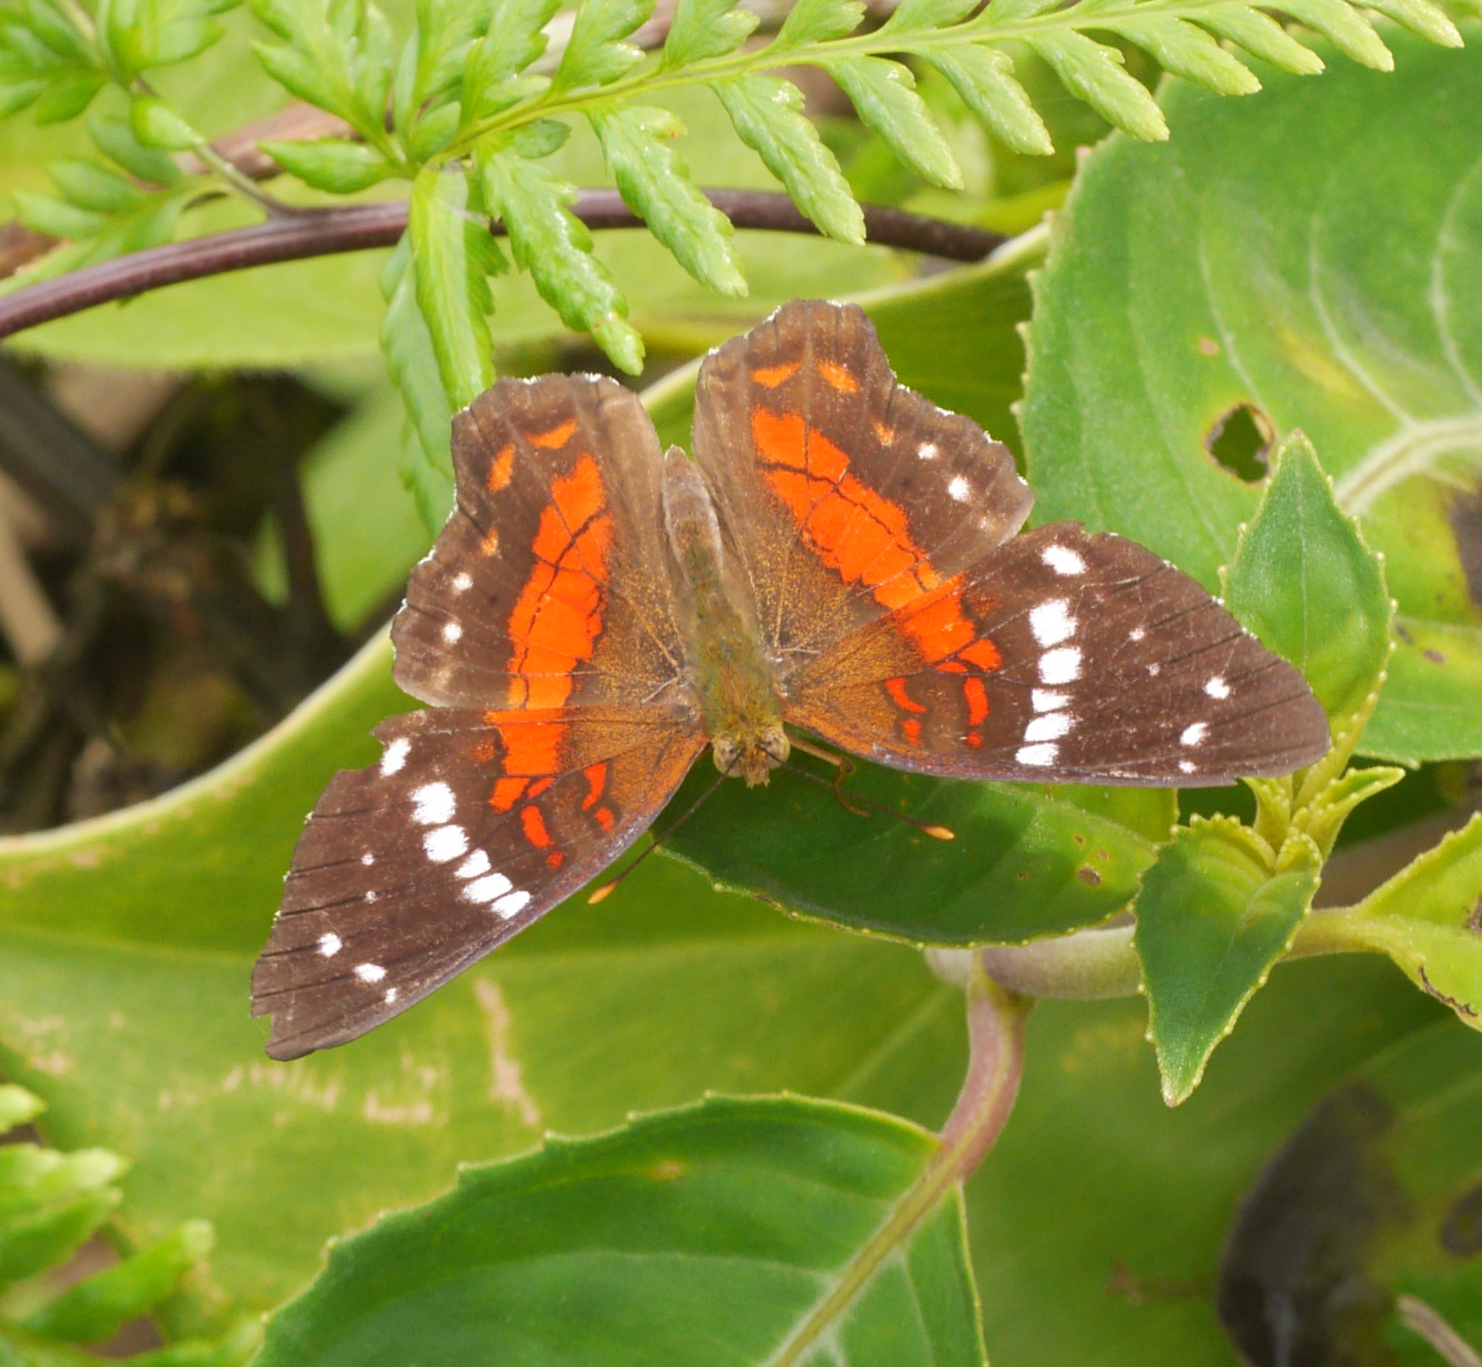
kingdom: Animalia
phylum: Arthropoda
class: Insecta
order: Lepidoptera
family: Nymphalidae
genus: Anartia
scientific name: Anartia amathea
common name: Red peacock
